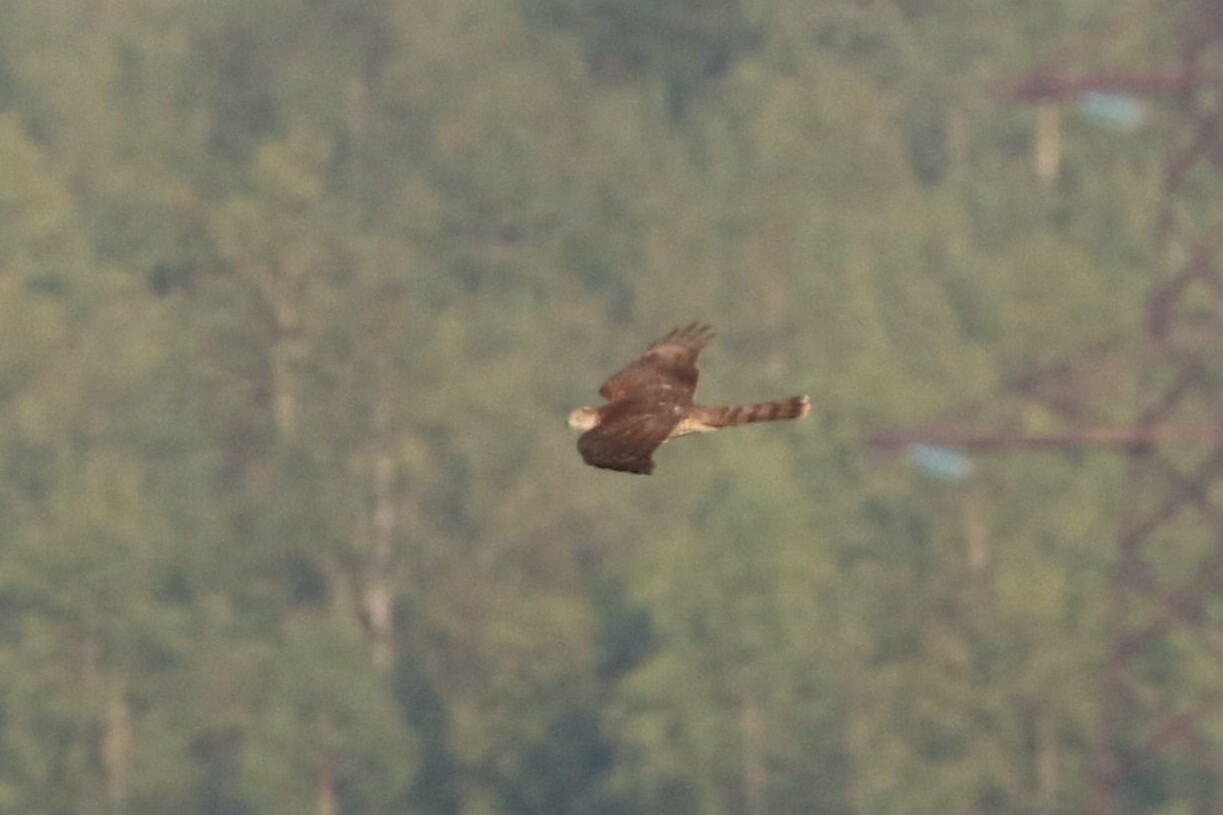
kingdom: Animalia
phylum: Chordata
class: Aves
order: Accipitriformes
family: Accipitridae
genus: Accipiter
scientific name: Accipiter nisus
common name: Eurasian sparrowhawk
